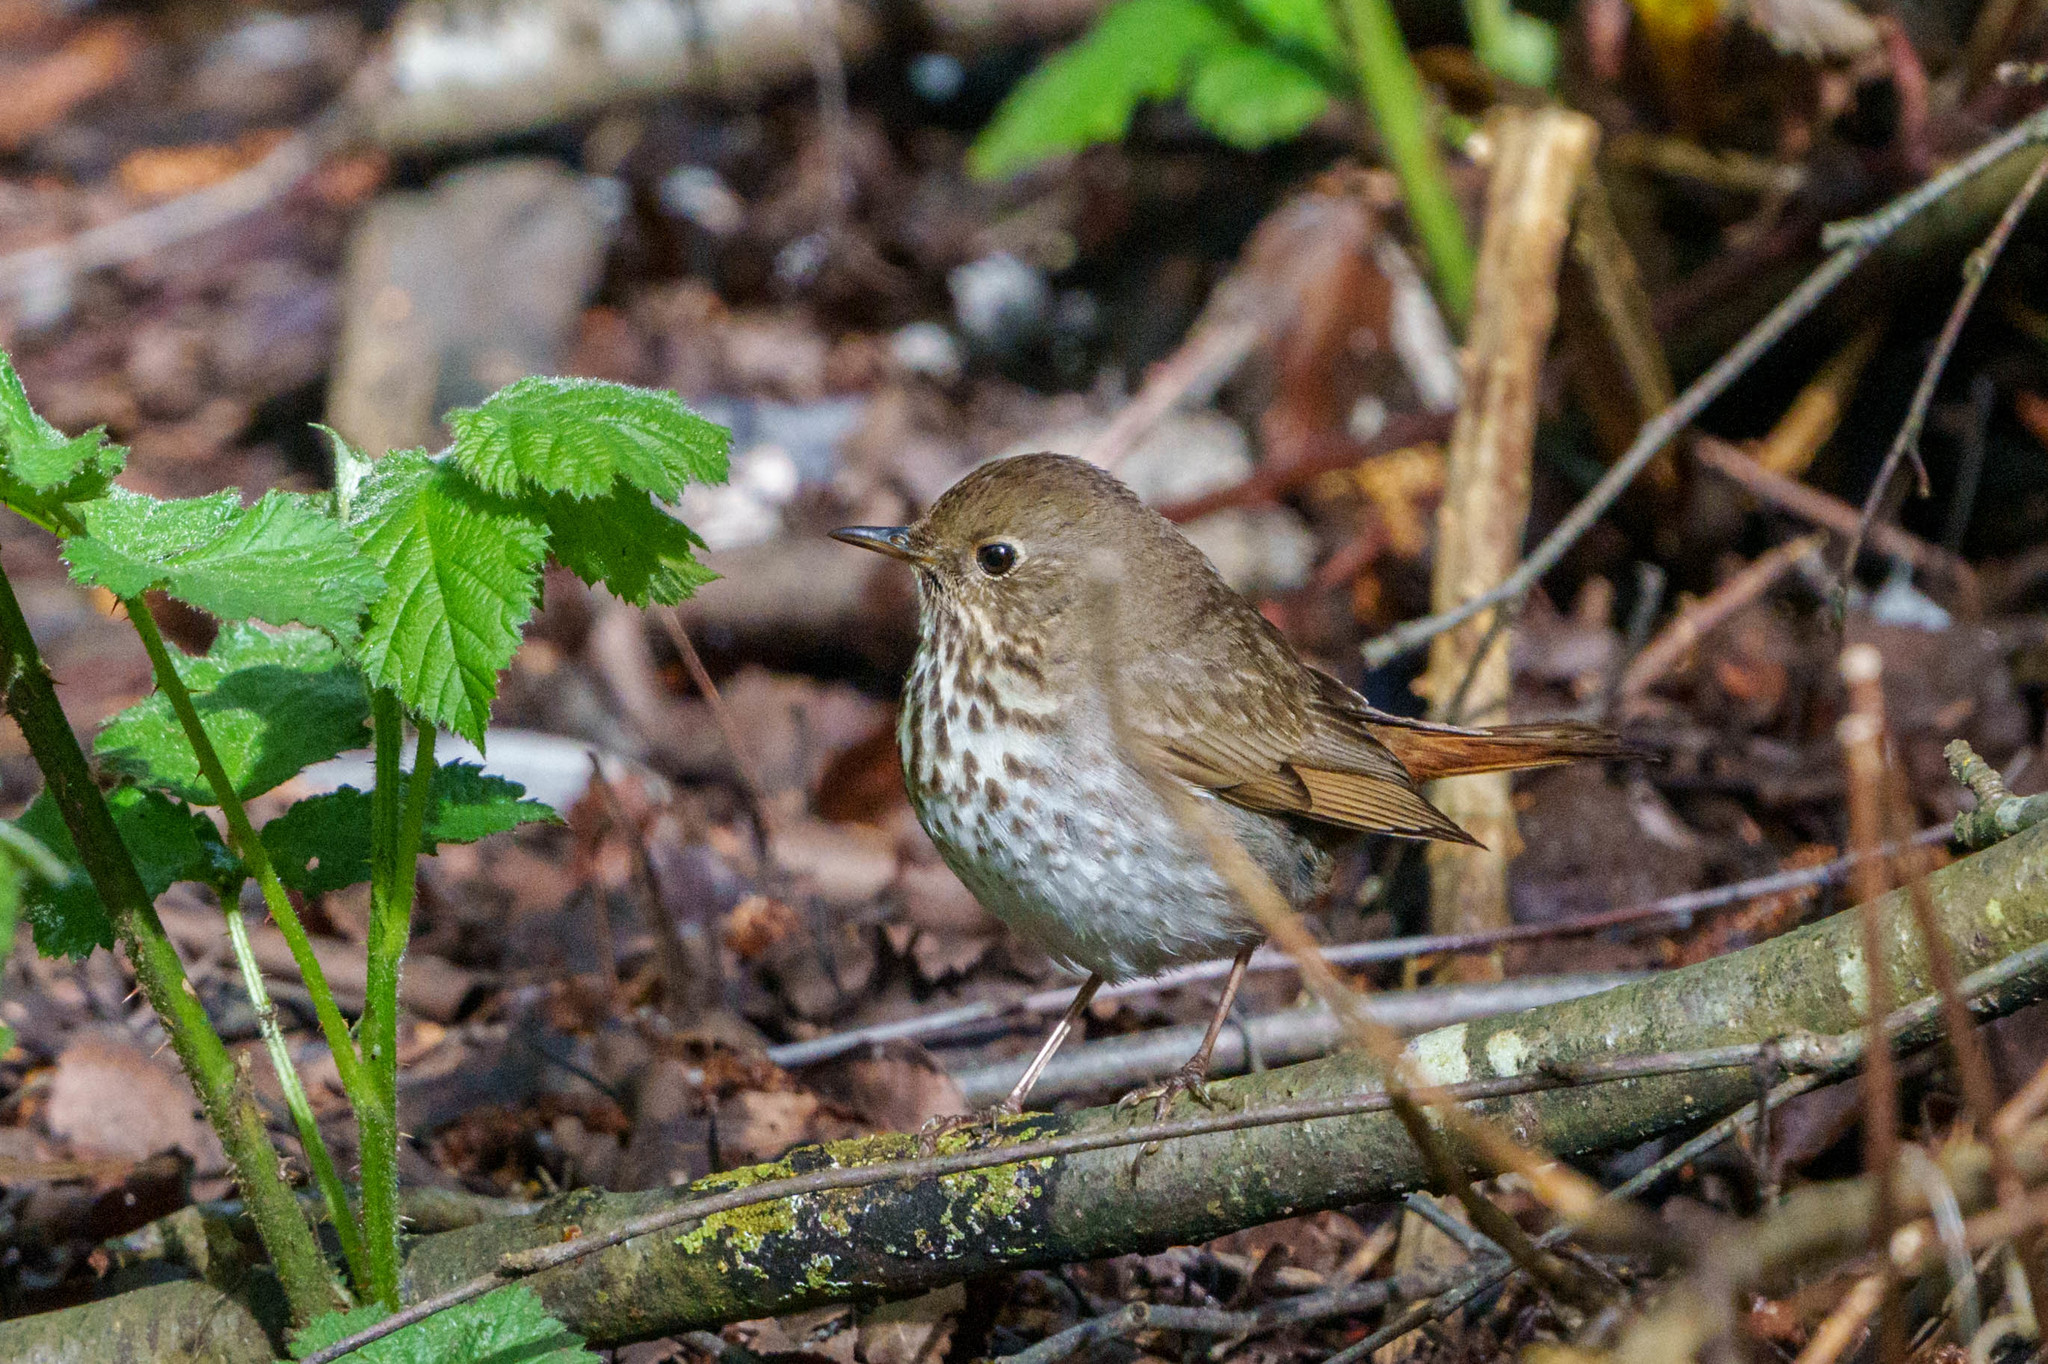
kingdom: Animalia
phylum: Chordata
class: Aves
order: Passeriformes
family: Turdidae
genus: Catharus
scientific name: Catharus guttatus
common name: Hermit thrush
